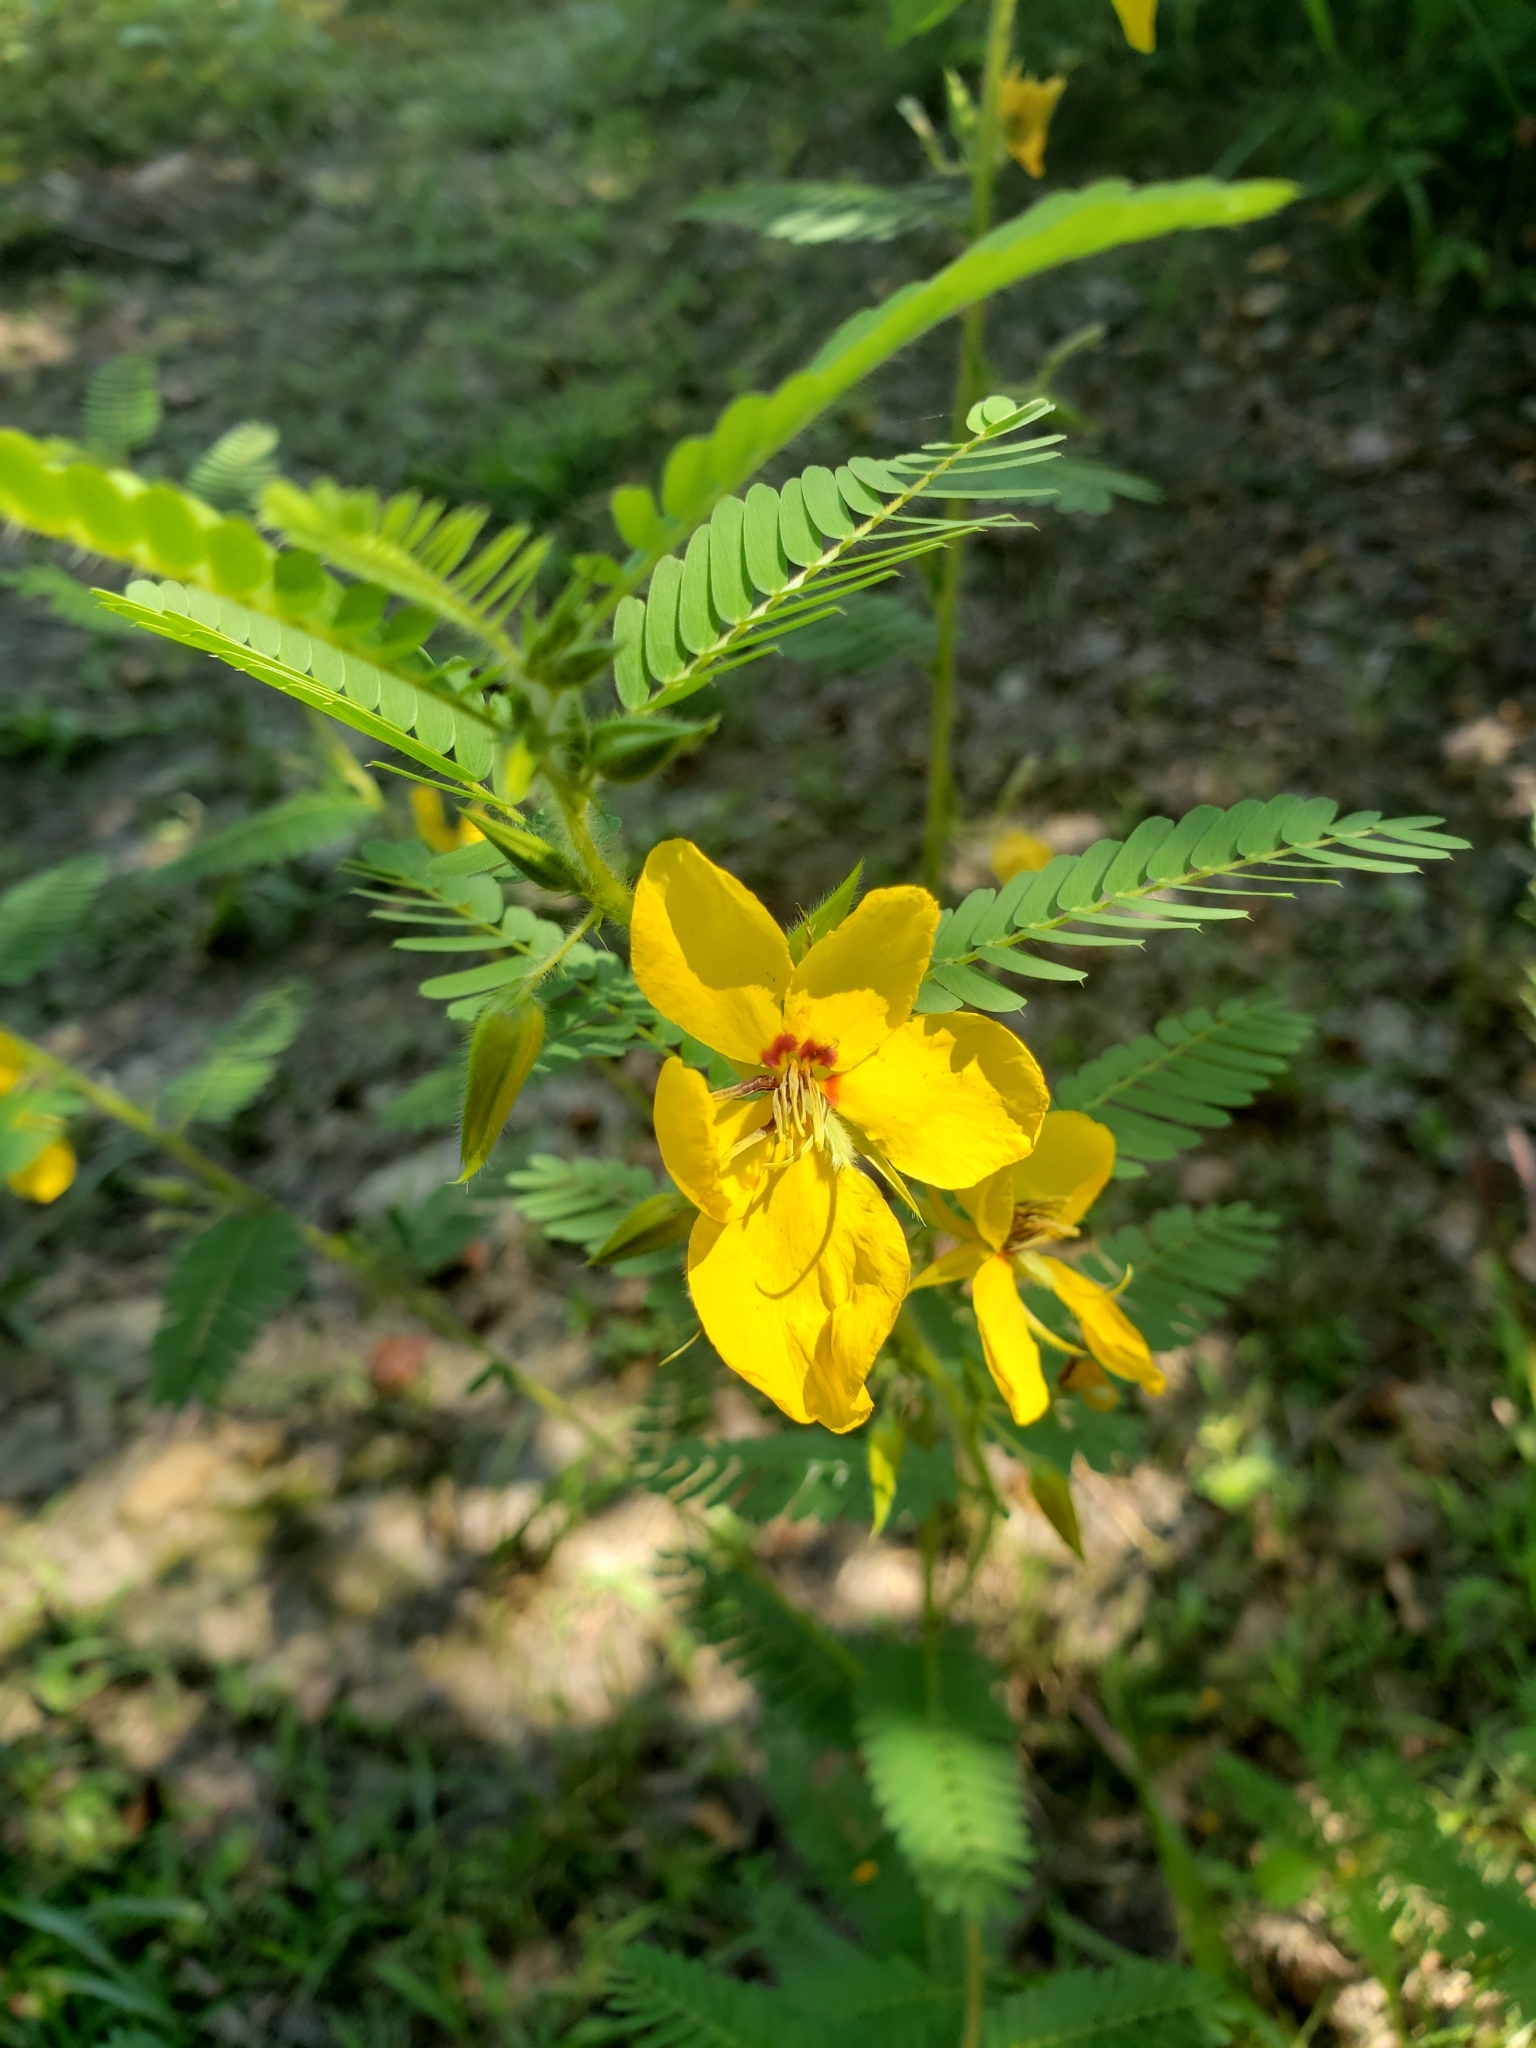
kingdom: Plantae
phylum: Tracheophyta
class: Magnoliopsida
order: Fabales
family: Fabaceae
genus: Chamaecrista
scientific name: Chamaecrista fasciculata
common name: Golden cassia
